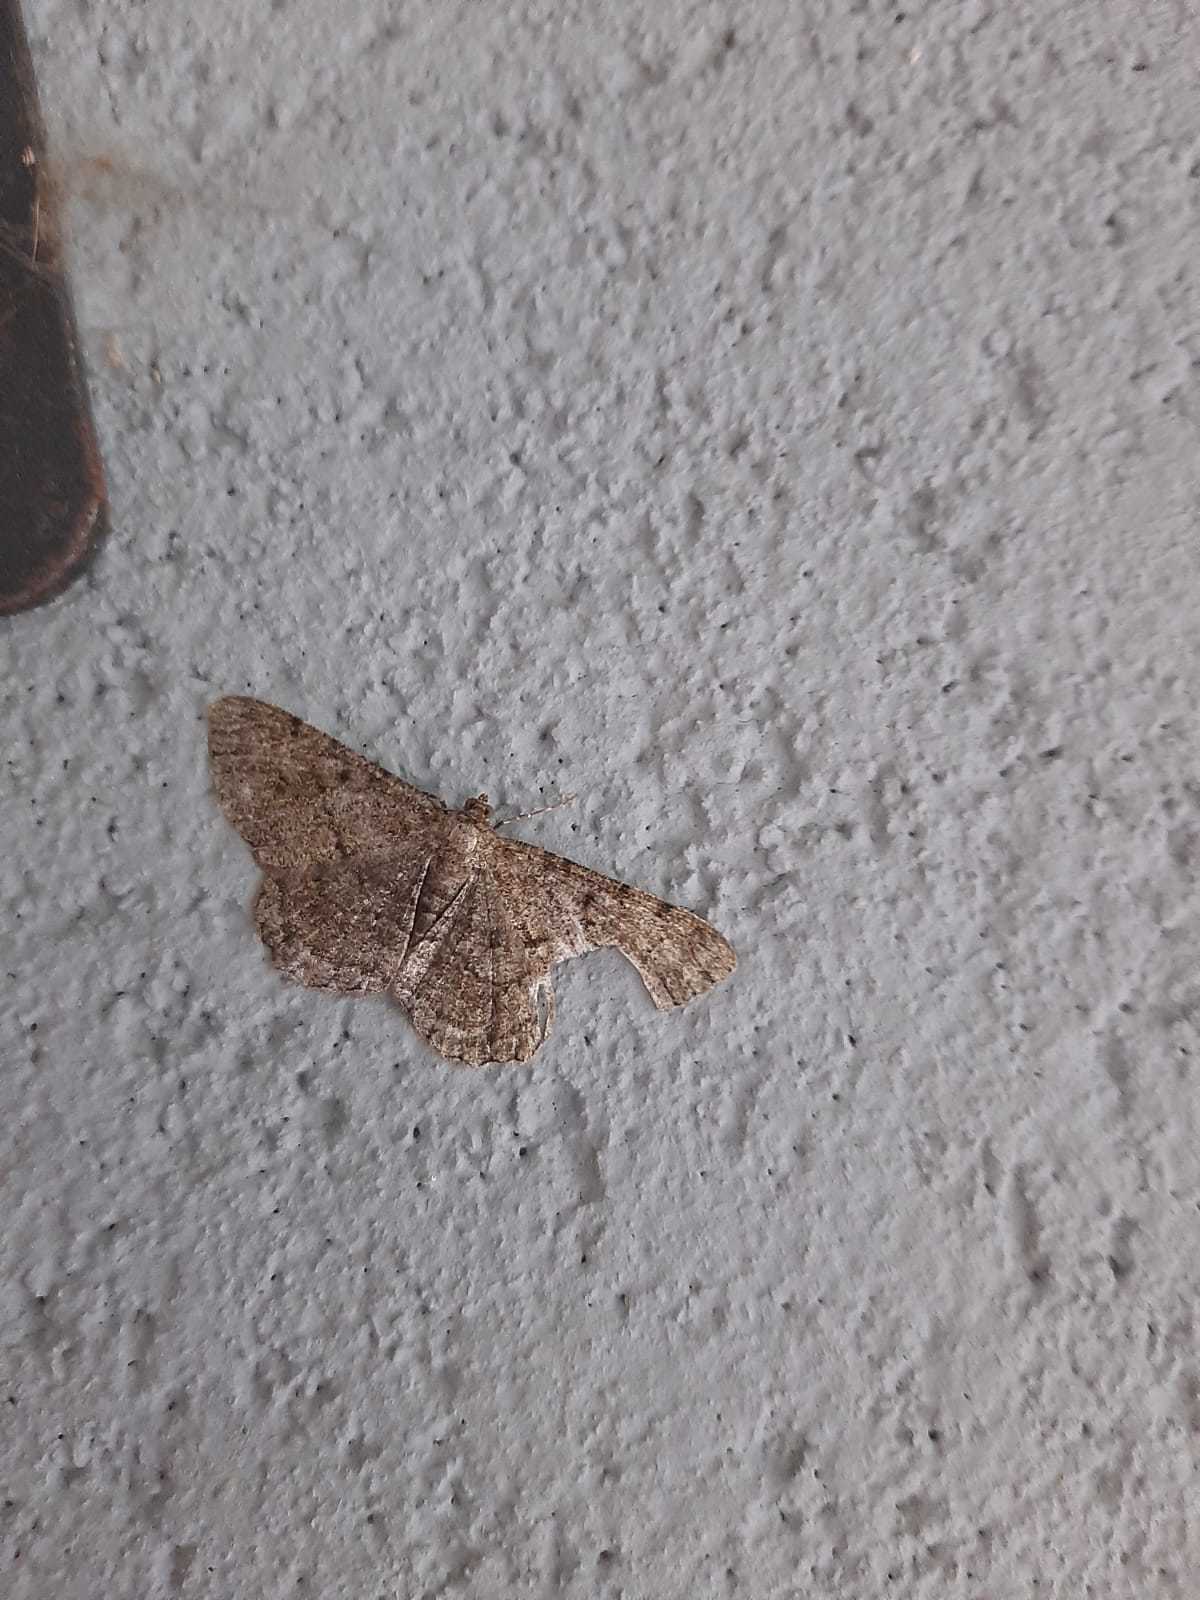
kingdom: Animalia
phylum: Arthropoda
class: Insecta
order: Lepidoptera
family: Geometridae
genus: Peribatodes
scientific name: Peribatodes rhomboidaria
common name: Willow beauty
